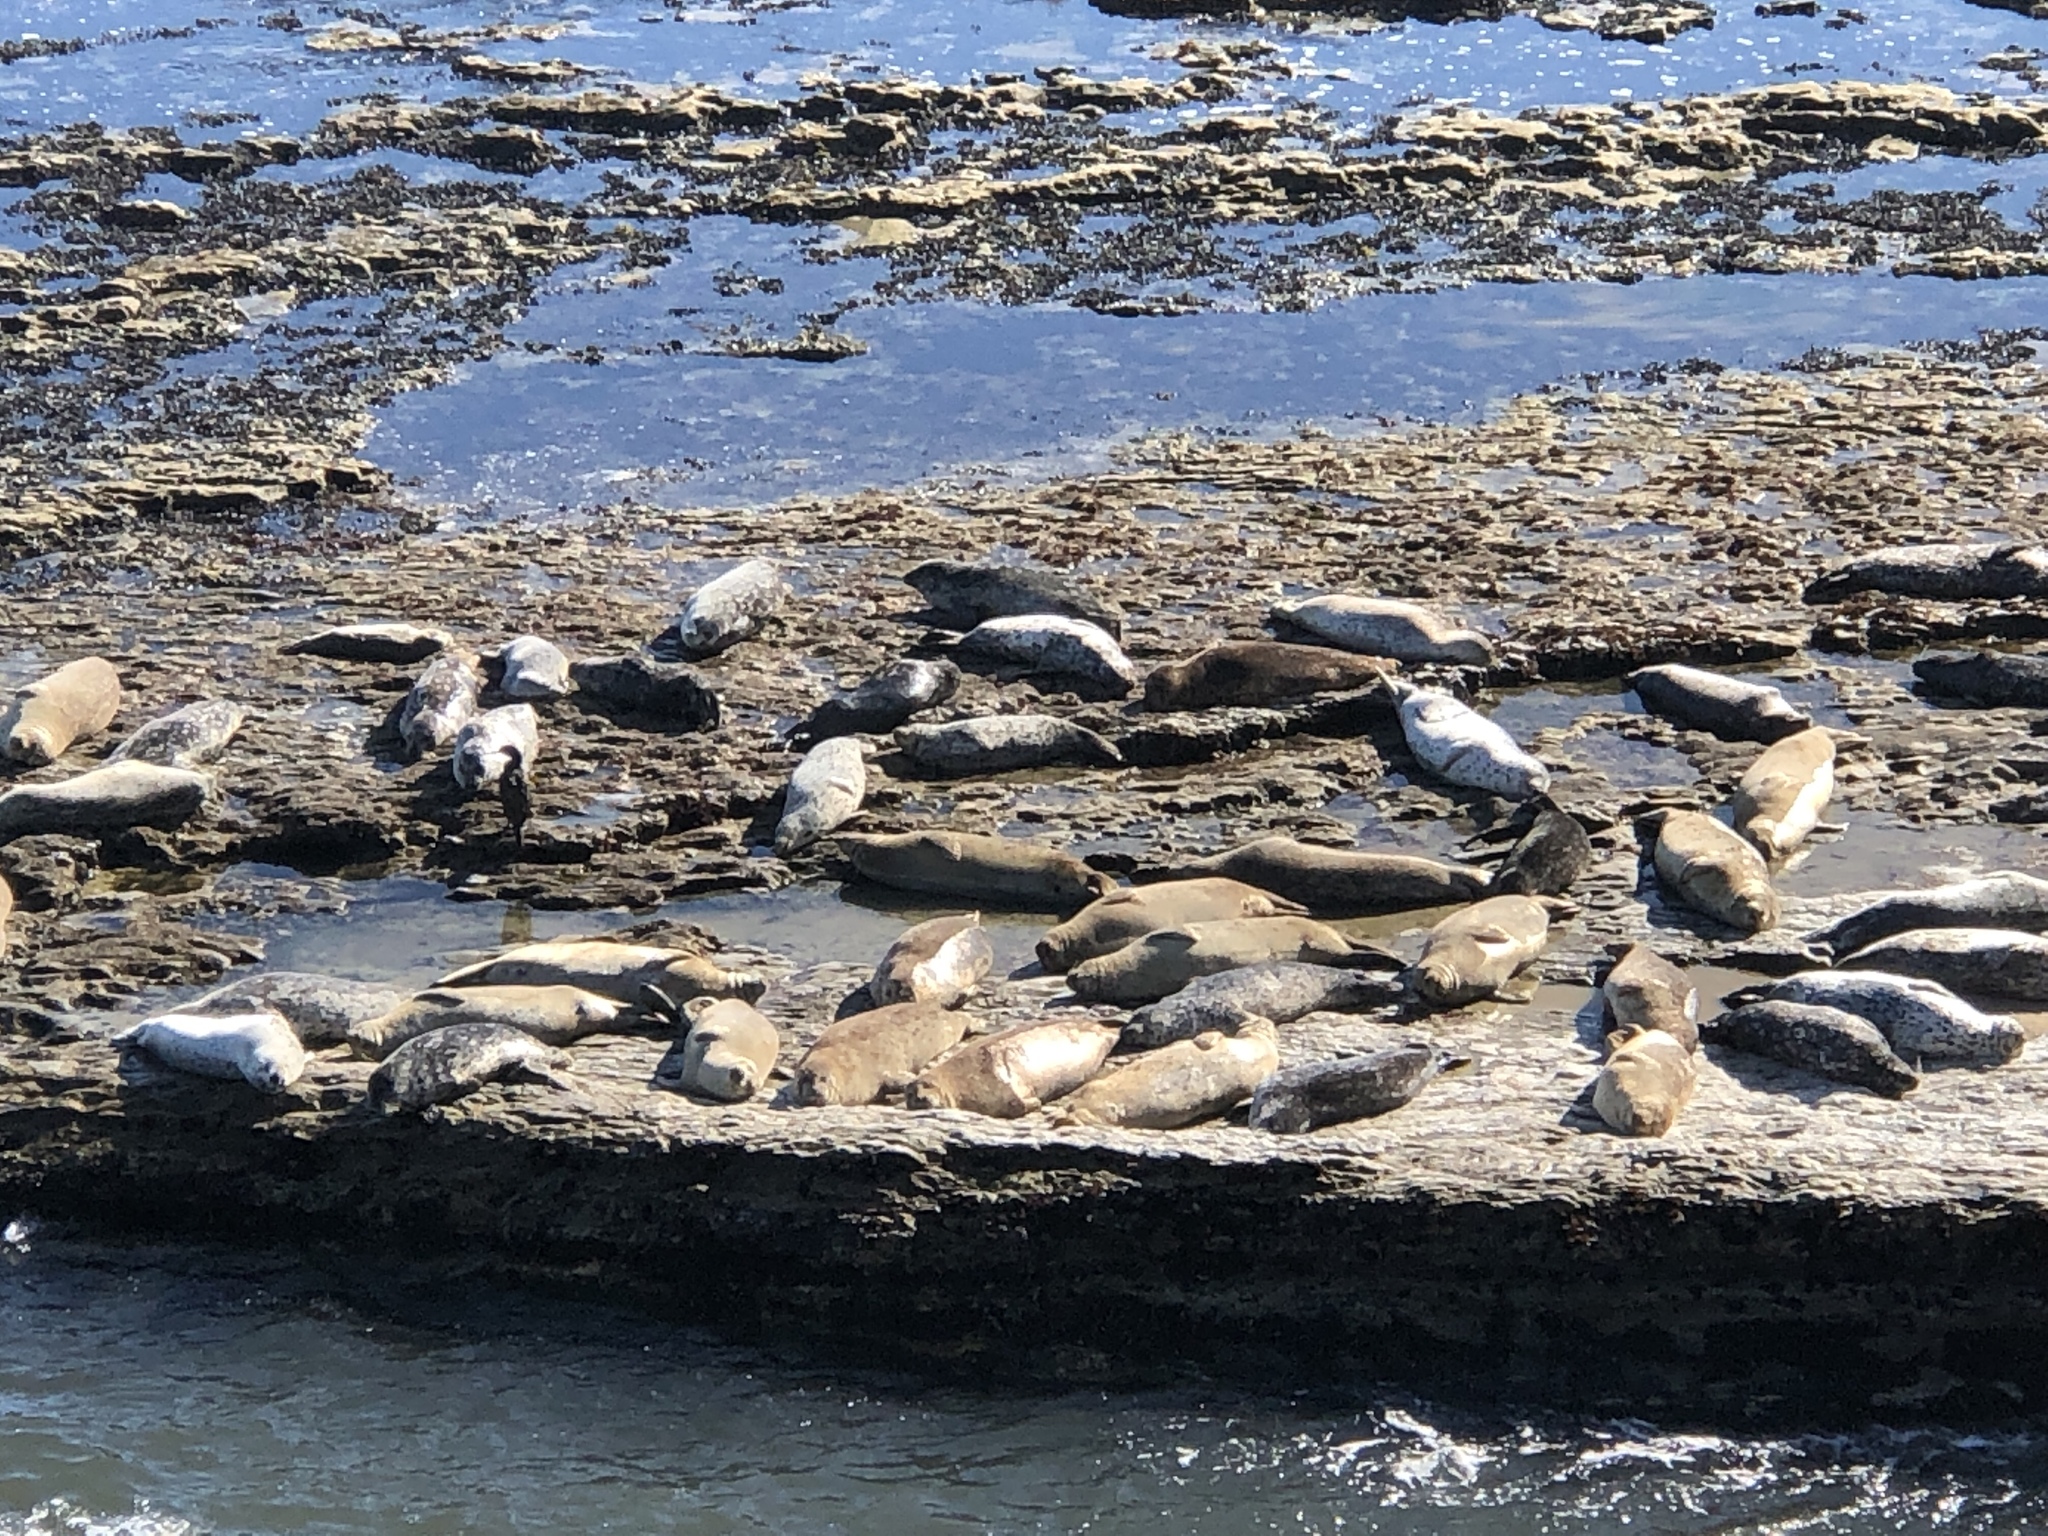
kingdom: Animalia
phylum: Chordata
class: Mammalia
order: Carnivora
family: Phocidae
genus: Phoca
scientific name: Phoca vitulina
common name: Harbor seal
